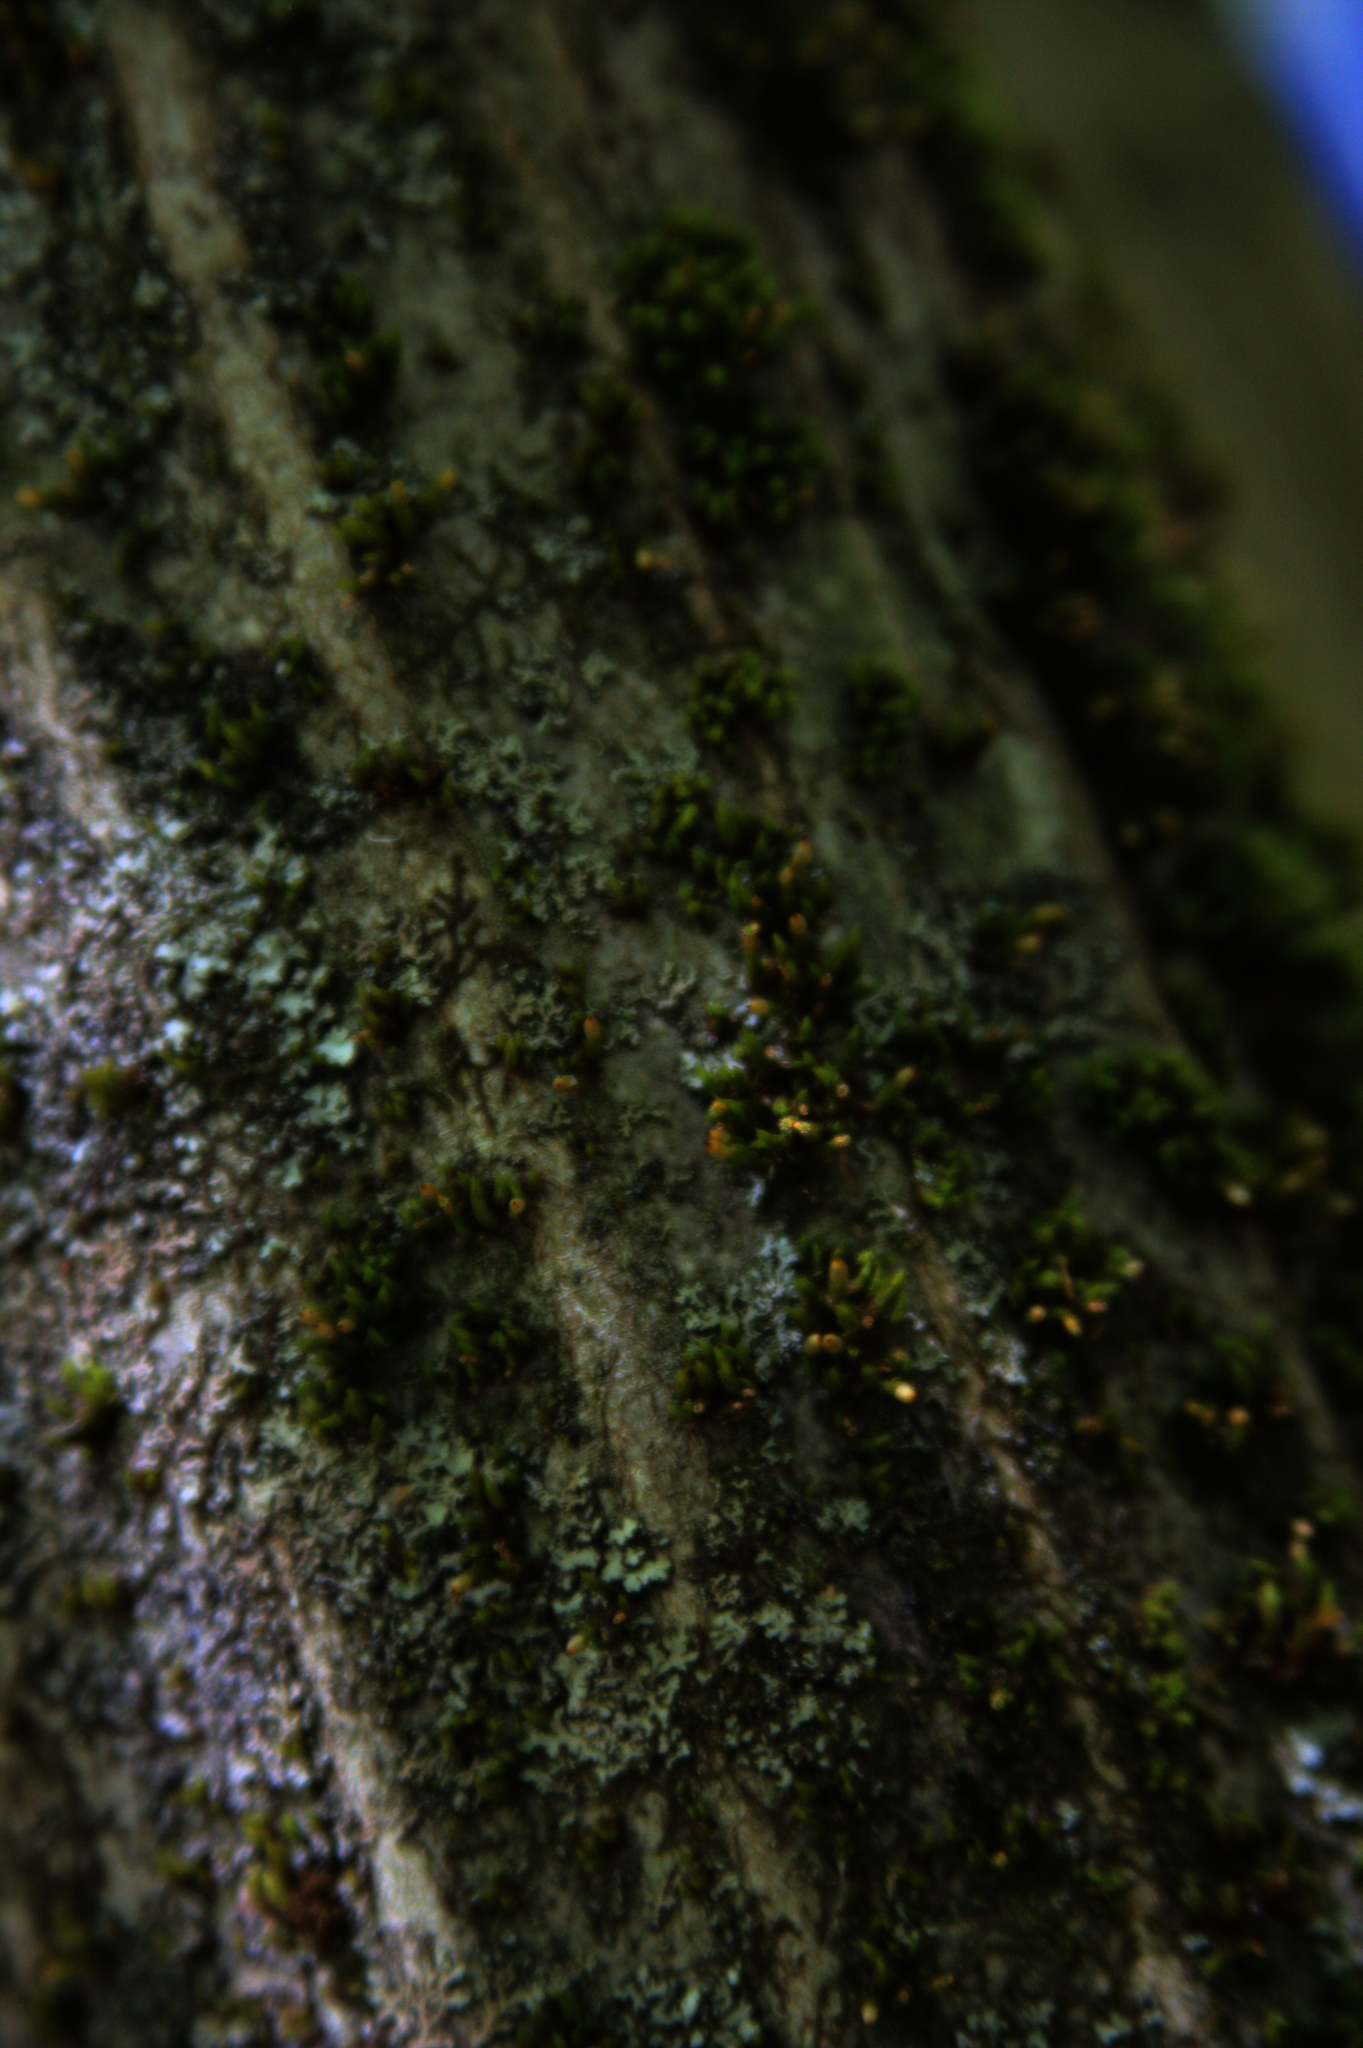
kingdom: Plantae
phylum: Bryophyta
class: Bryopsida
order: Orthotrichales
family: Orthotrichaceae
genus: Ulota
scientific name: Ulota crispa
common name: Crisped pincushion moss
